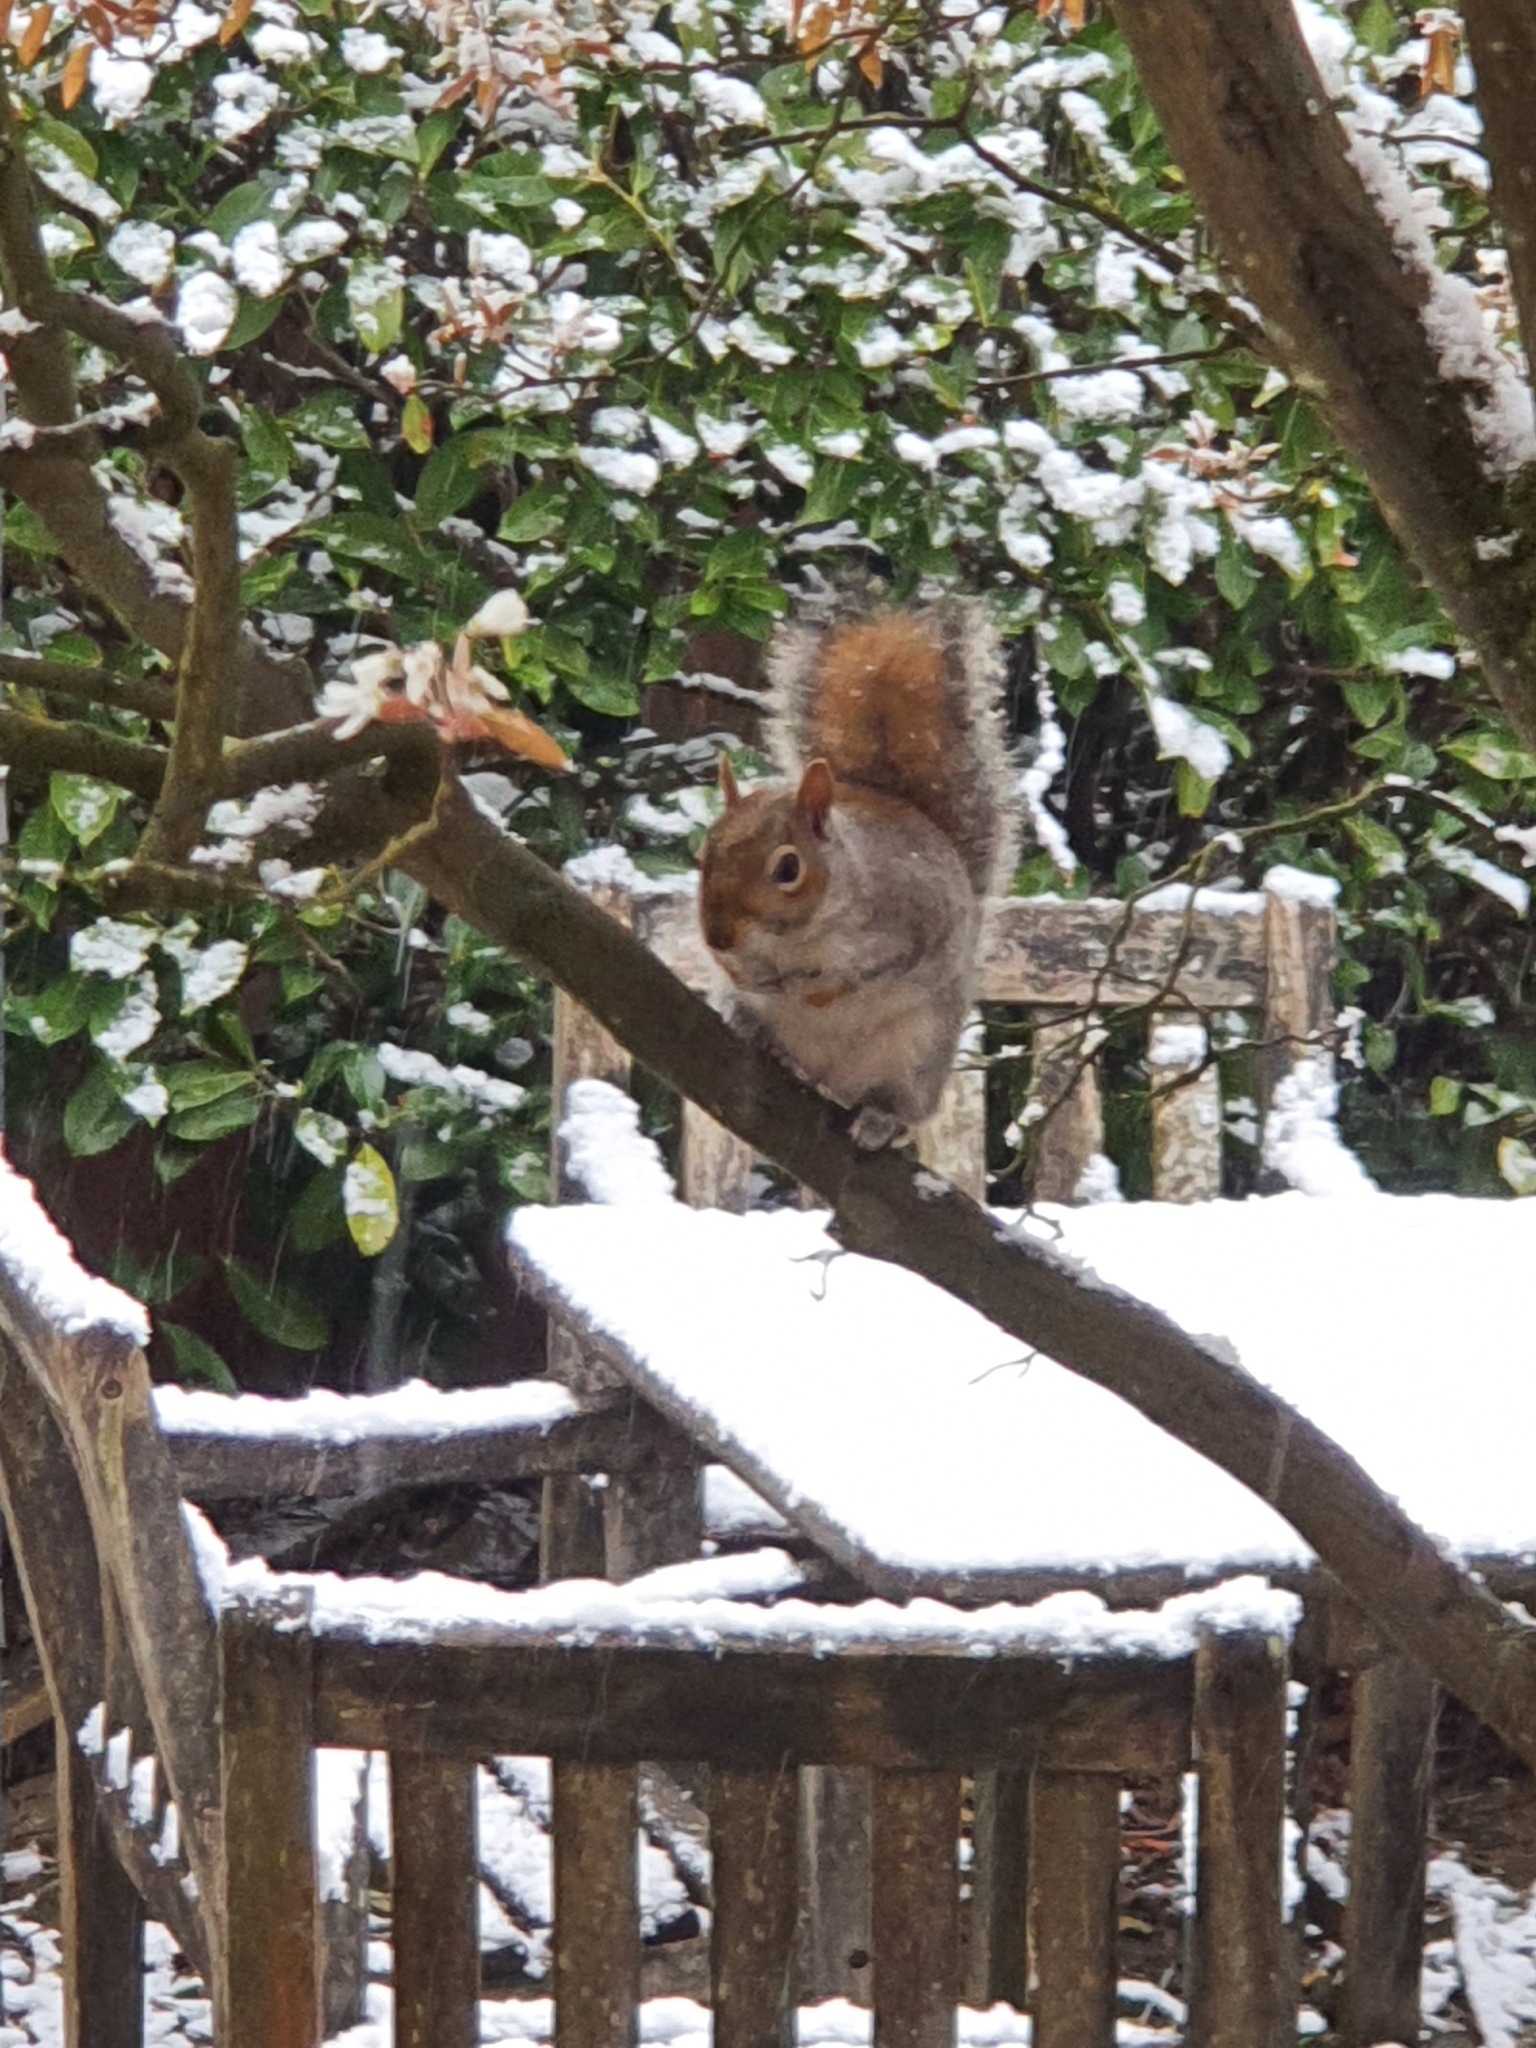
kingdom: Animalia
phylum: Chordata
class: Mammalia
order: Rodentia
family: Sciuridae
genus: Sciurus
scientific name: Sciurus carolinensis
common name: Eastern gray squirrel
